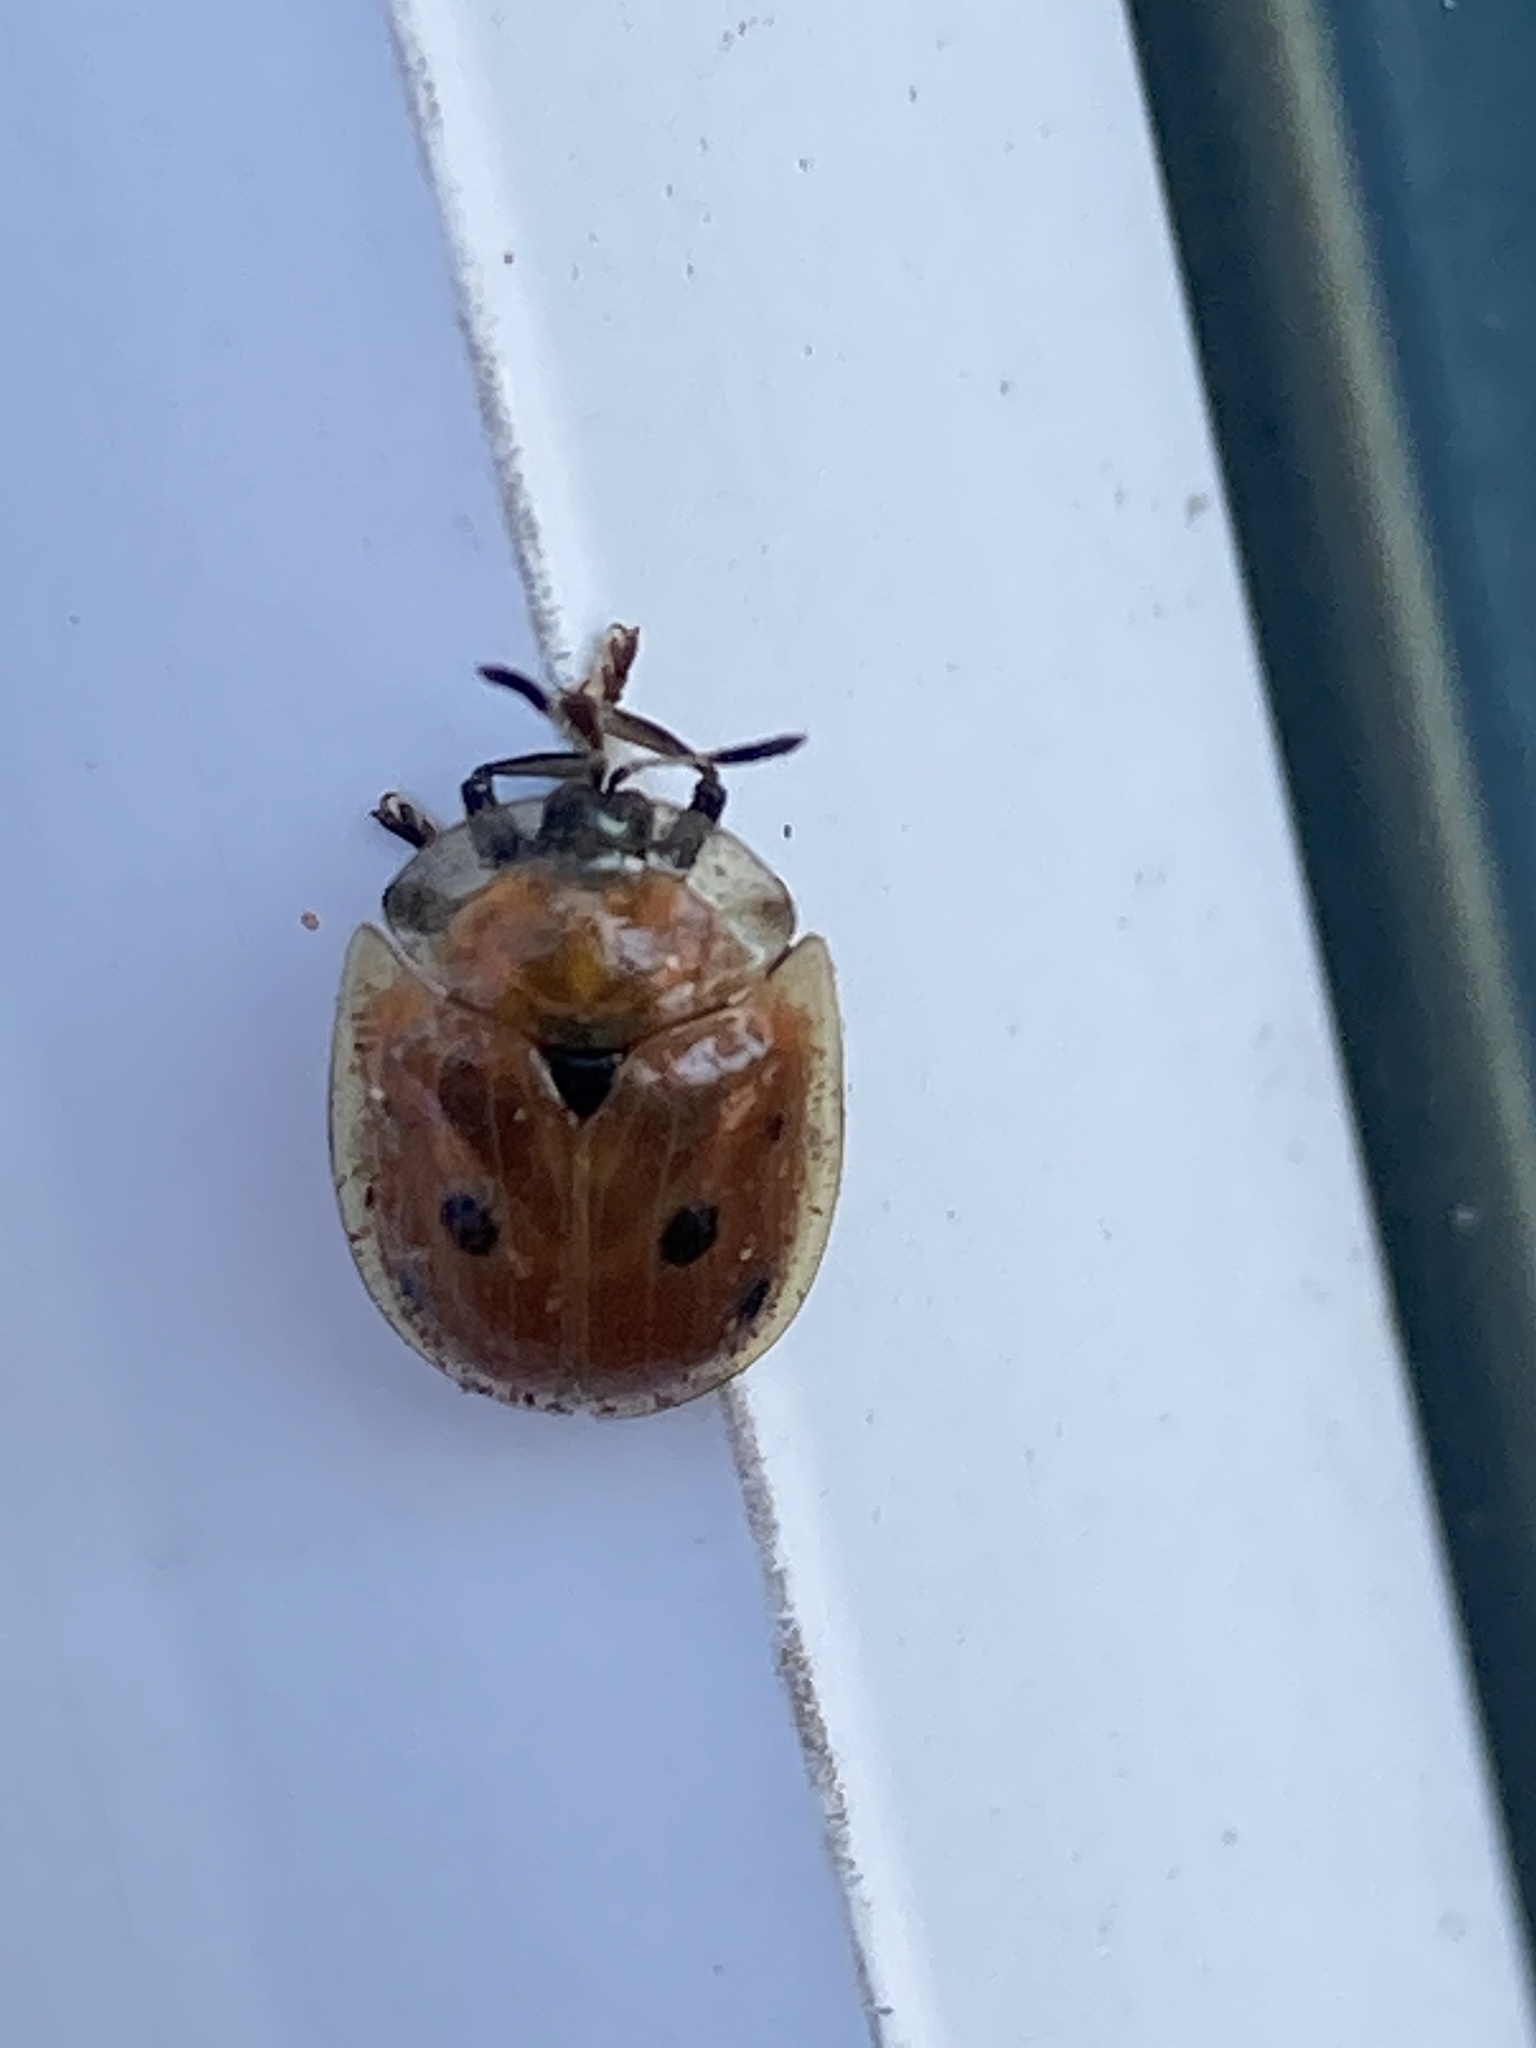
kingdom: Animalia
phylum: Arthropoda
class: Insecta
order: Coleoptera
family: Chrysomelidae
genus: Charidotella
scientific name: Charidotella sexpunctata
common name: Golden tortoise beetle
